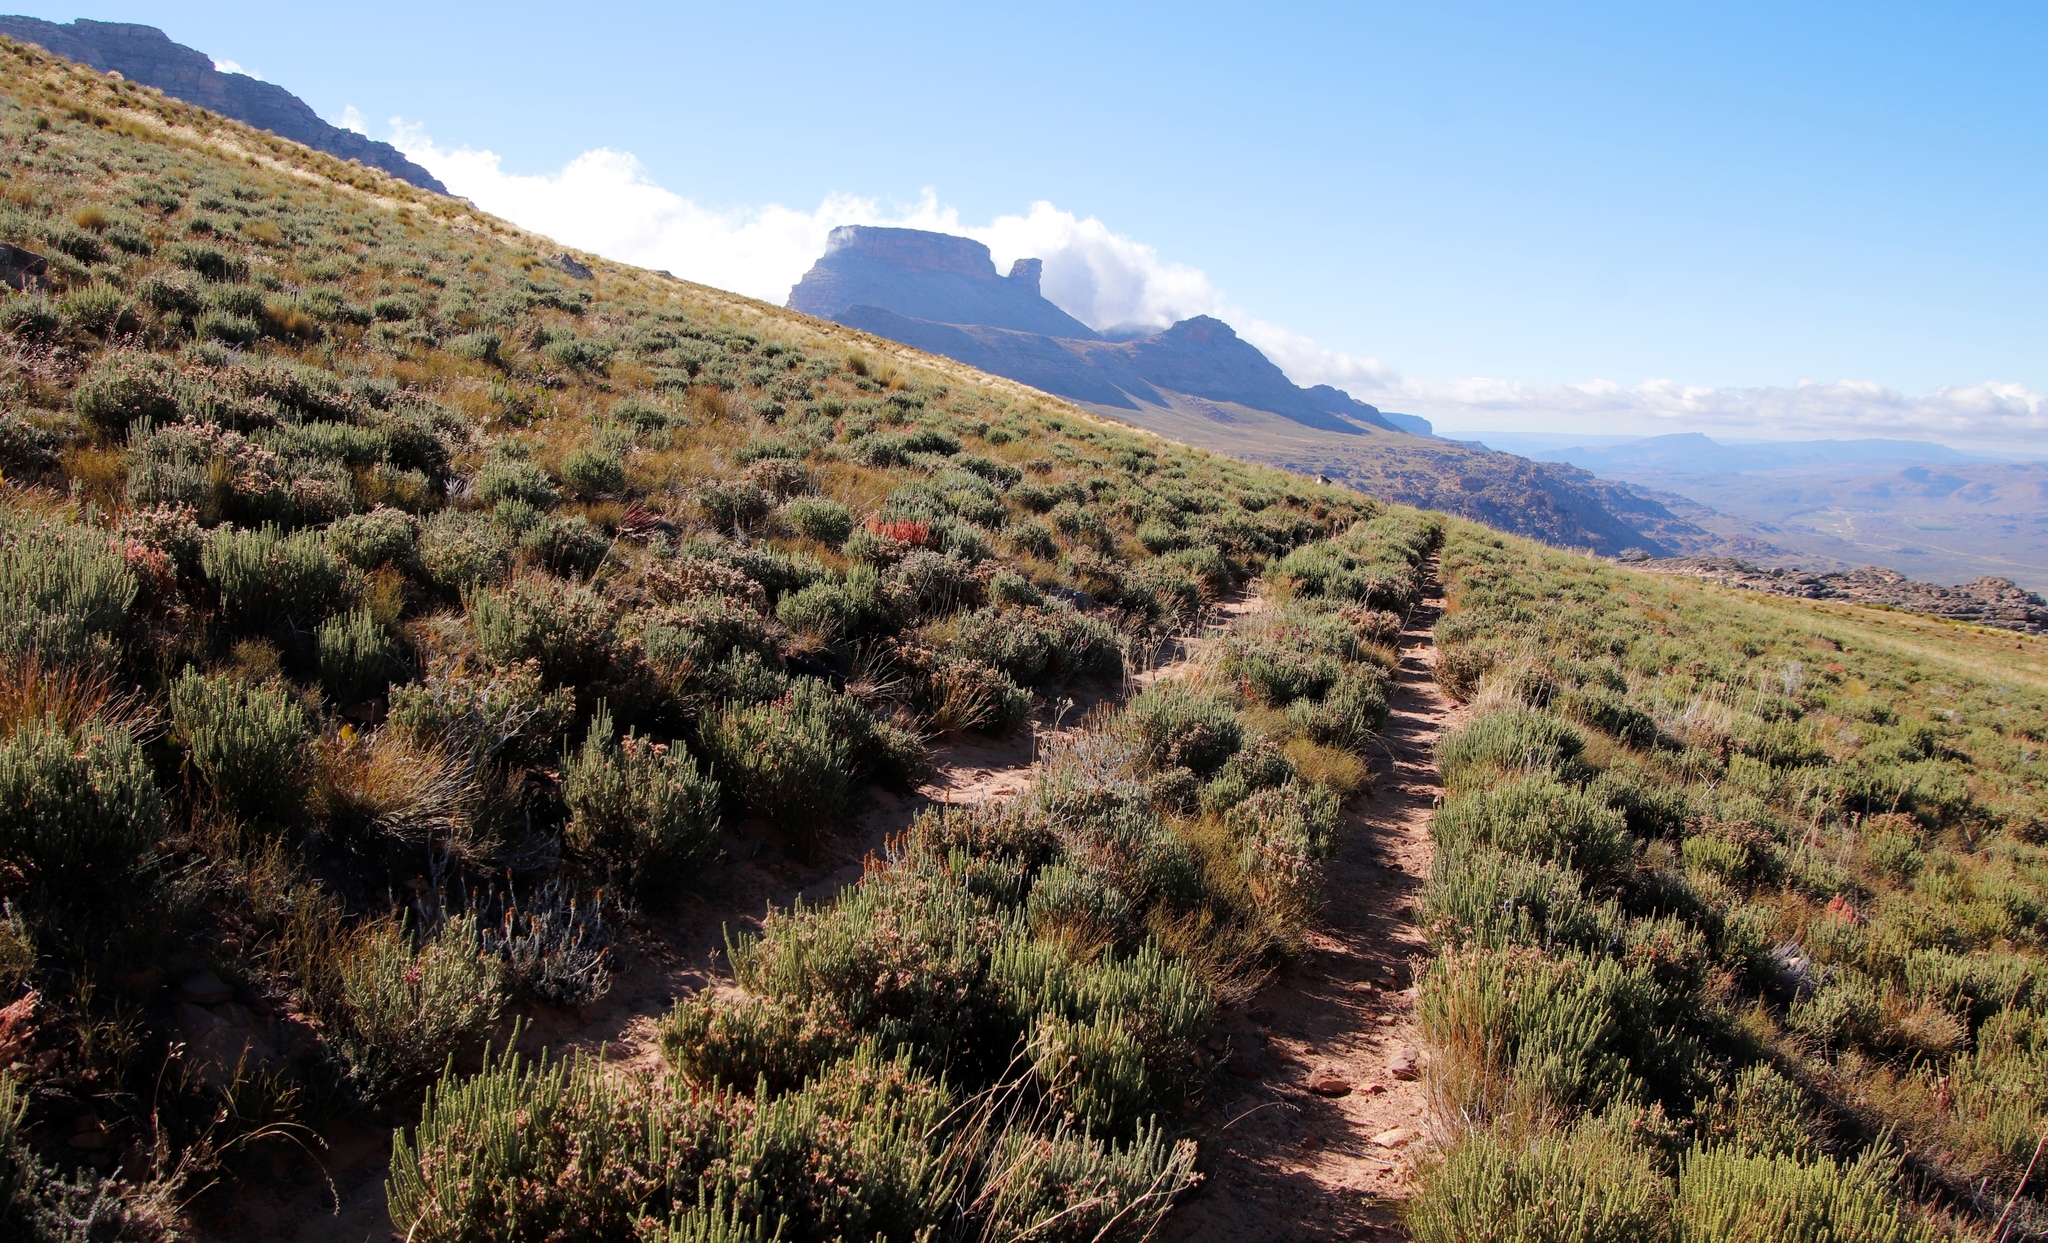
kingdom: Plantae
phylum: Tracheophyta
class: Magnoliopsida
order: Fabales
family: Fabaceae
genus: Aspalathus
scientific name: Aspalathus triquetra
